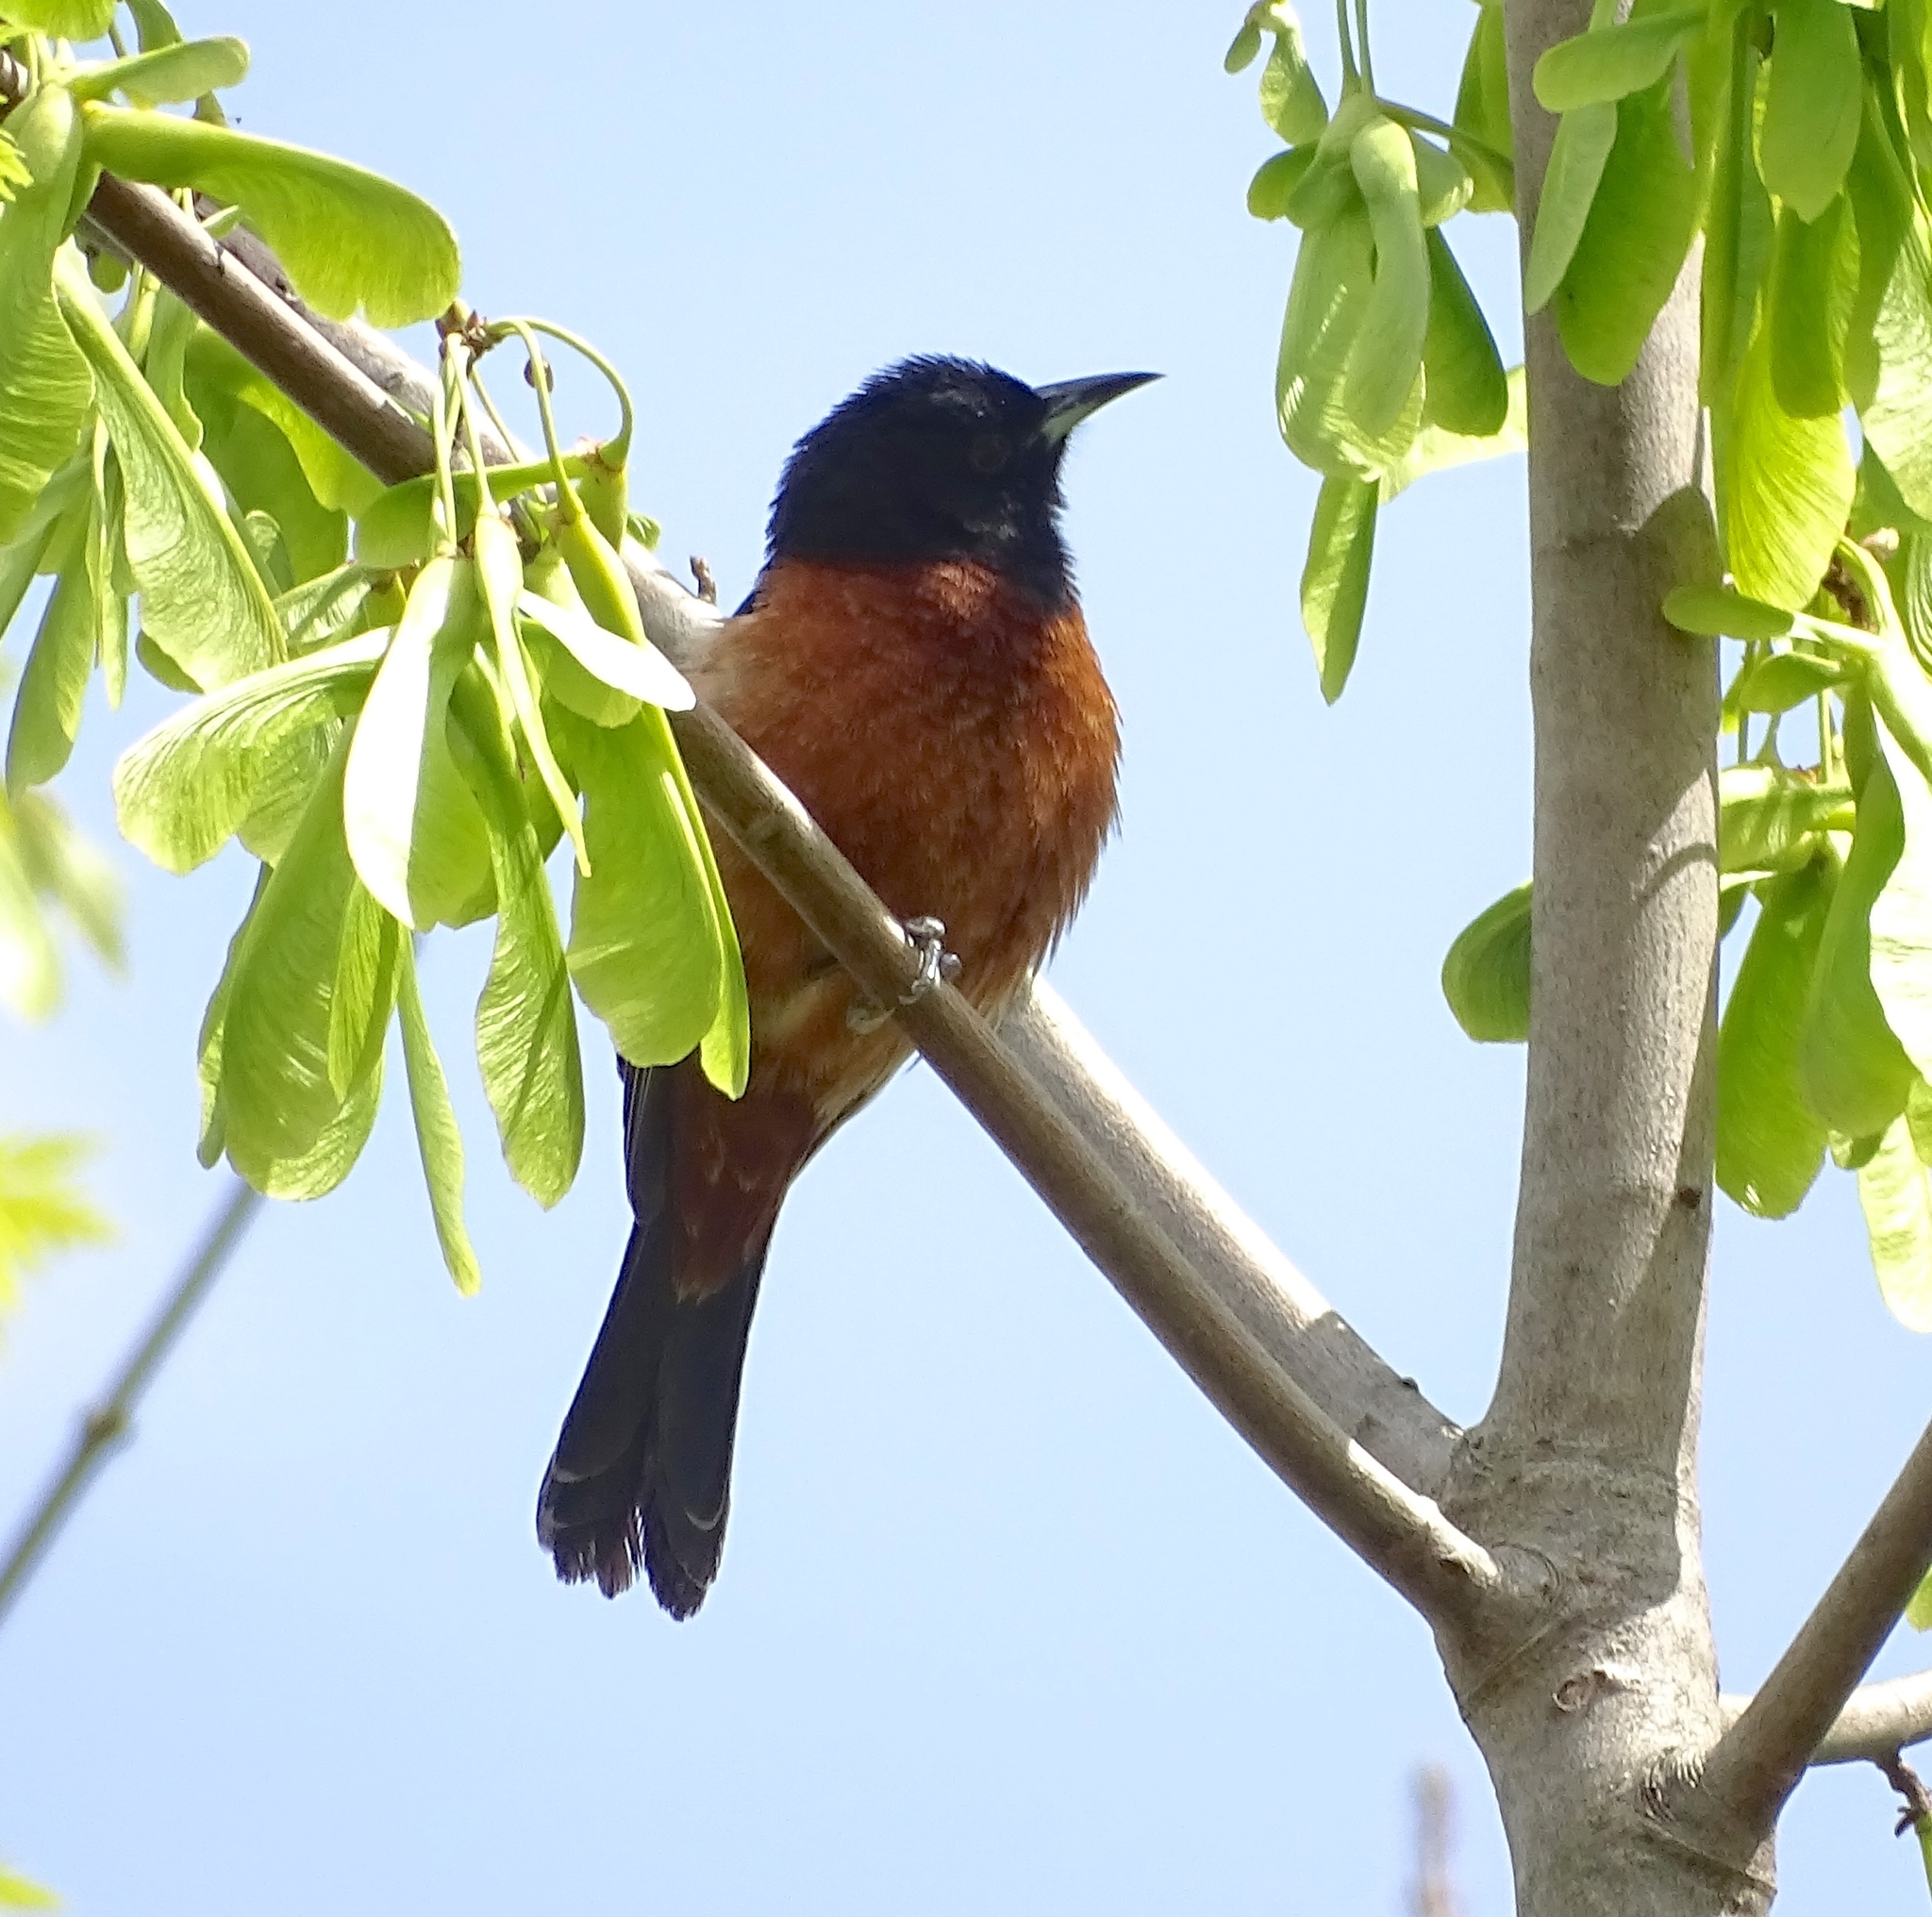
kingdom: Animalia
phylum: Chordata
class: Aves
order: Passeriformes
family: Icteridae
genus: Icterus
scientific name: Icterus spurius
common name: Orchard oriole
